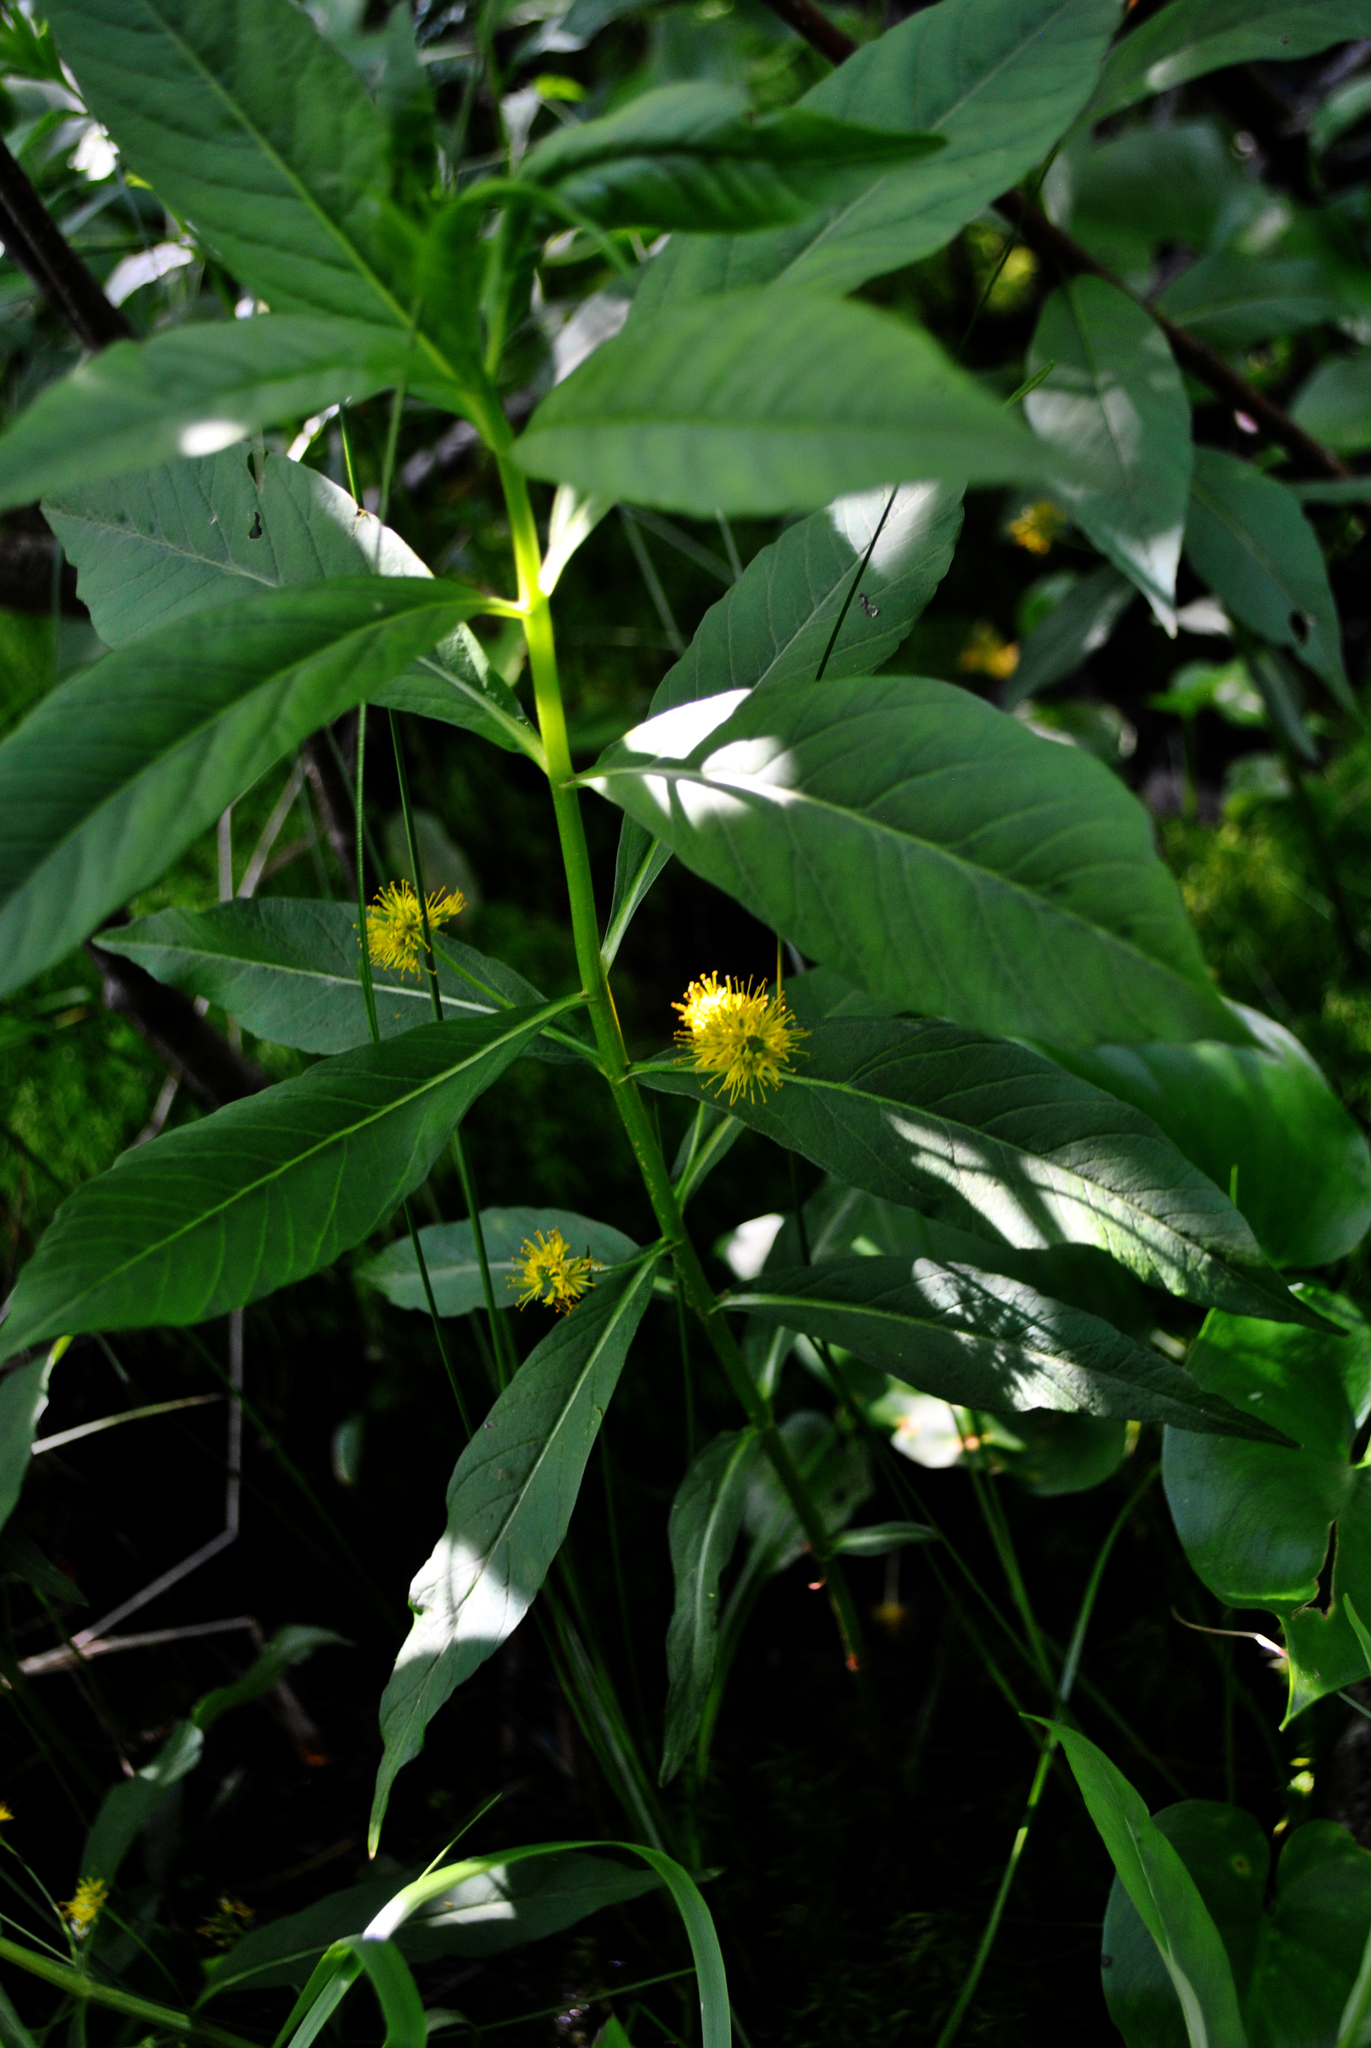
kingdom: Plantae
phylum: Tracheophyta
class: Magnoliopsida
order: Ericales
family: Primulaceae
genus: Lysimachia
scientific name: Lysimachia thyrsiflora
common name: Tufted loosestrife
